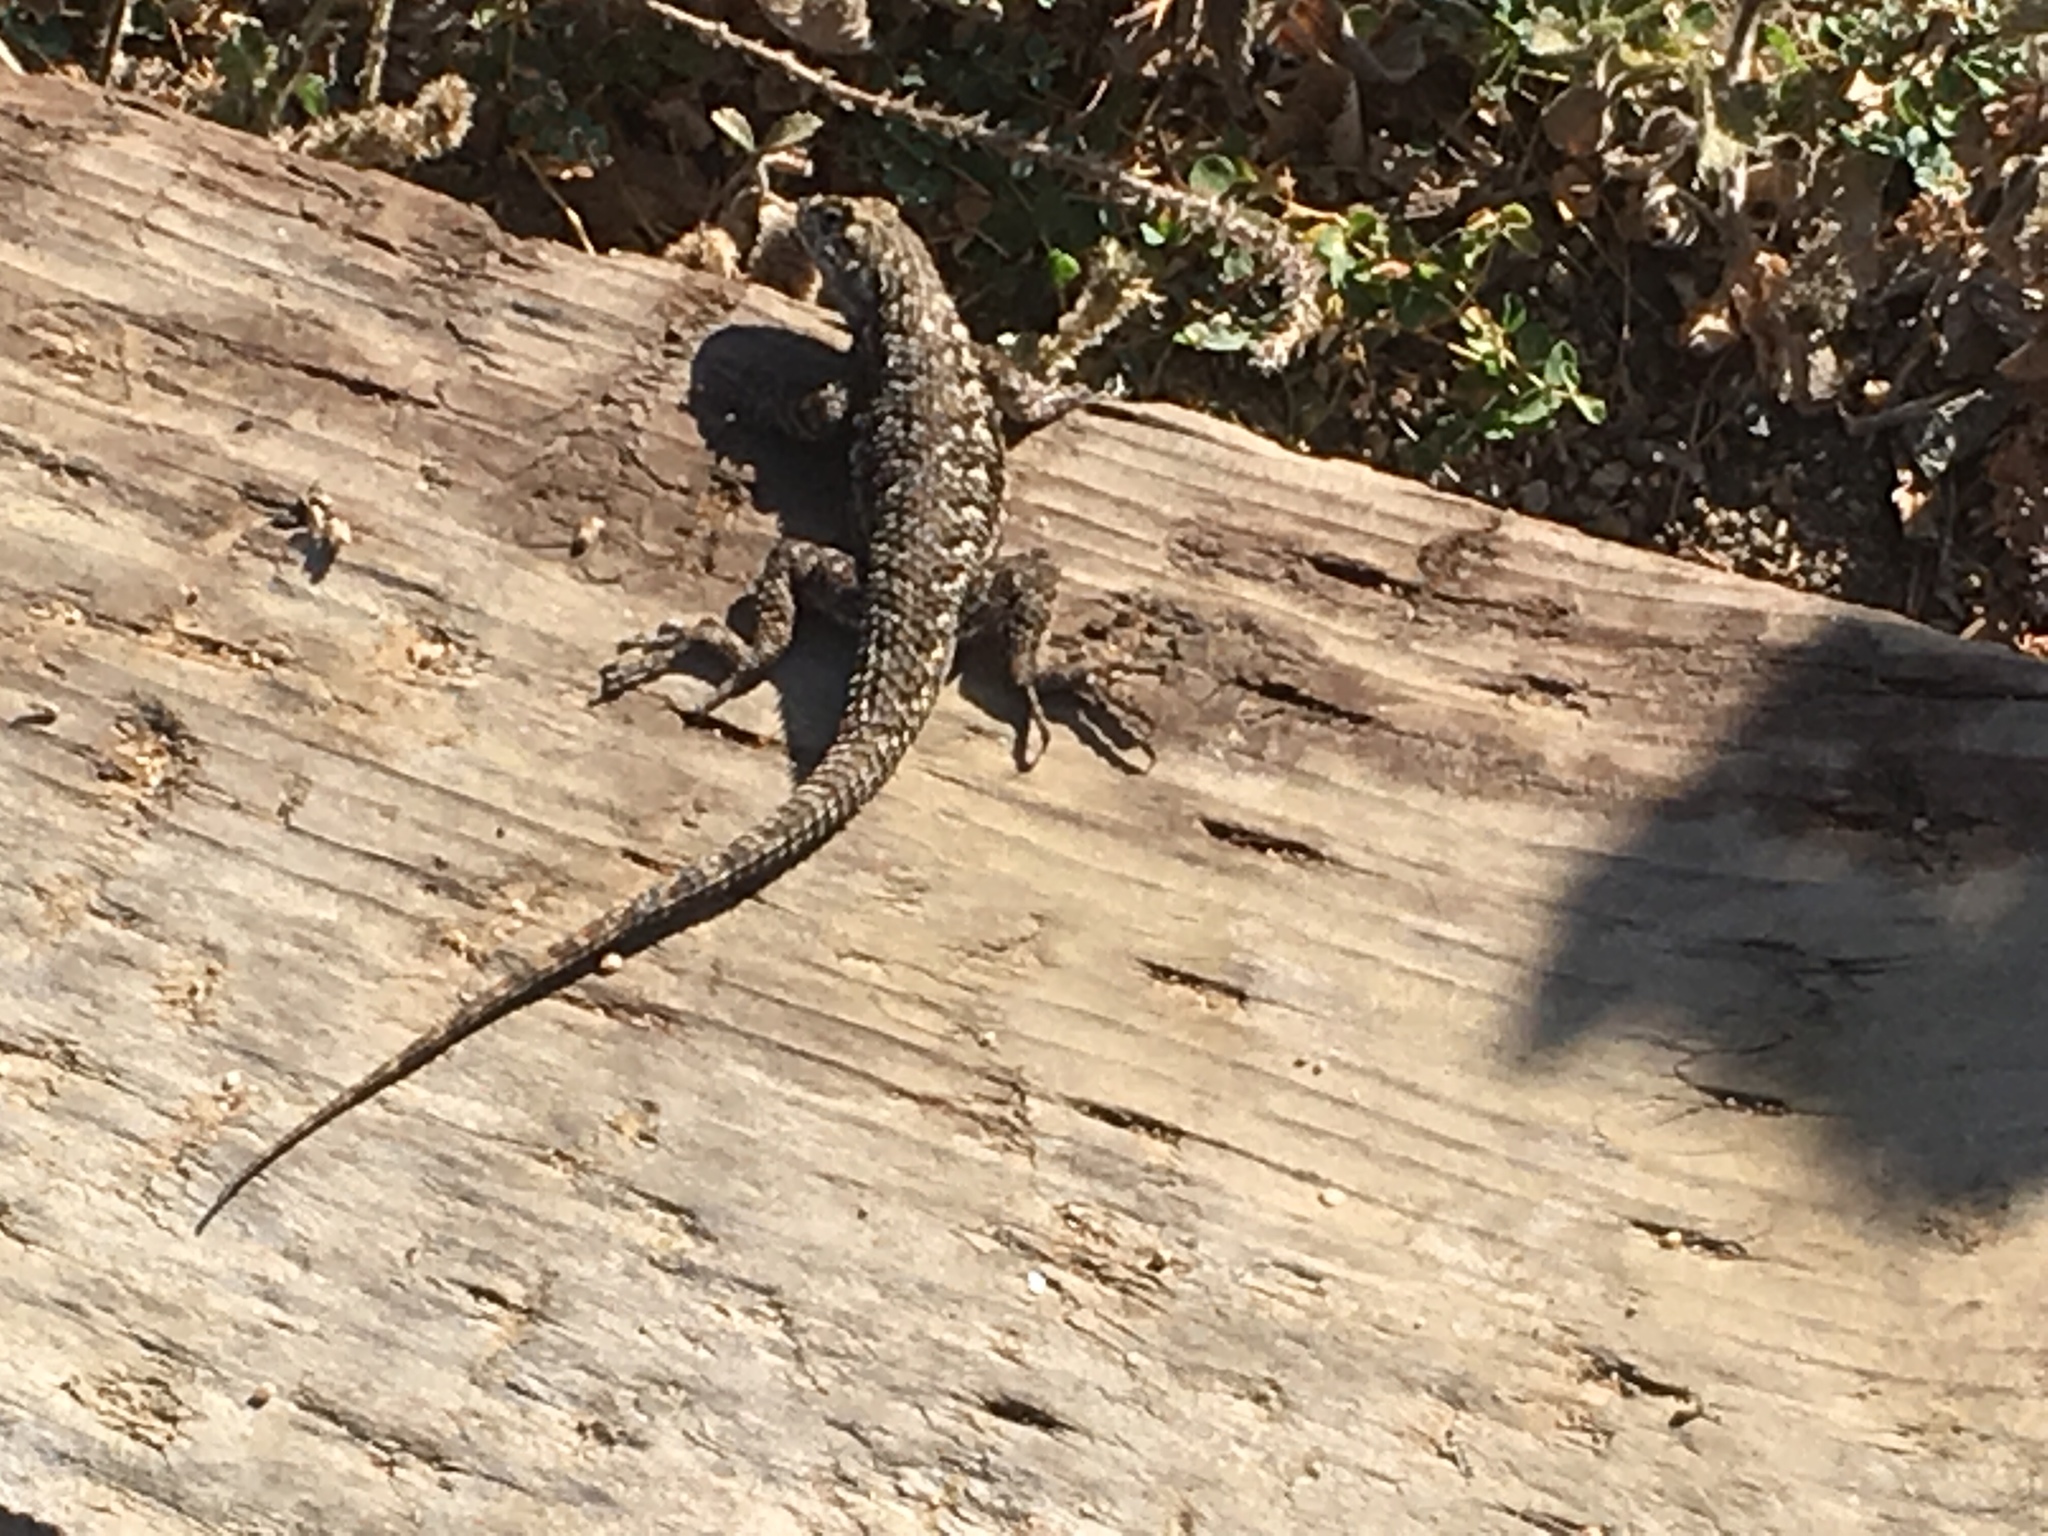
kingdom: Animalia
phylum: Chordata
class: Squamata
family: Phrynosomatidae
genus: Sceloporus
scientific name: Sceloporus occidentalis
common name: Western fence lizard
